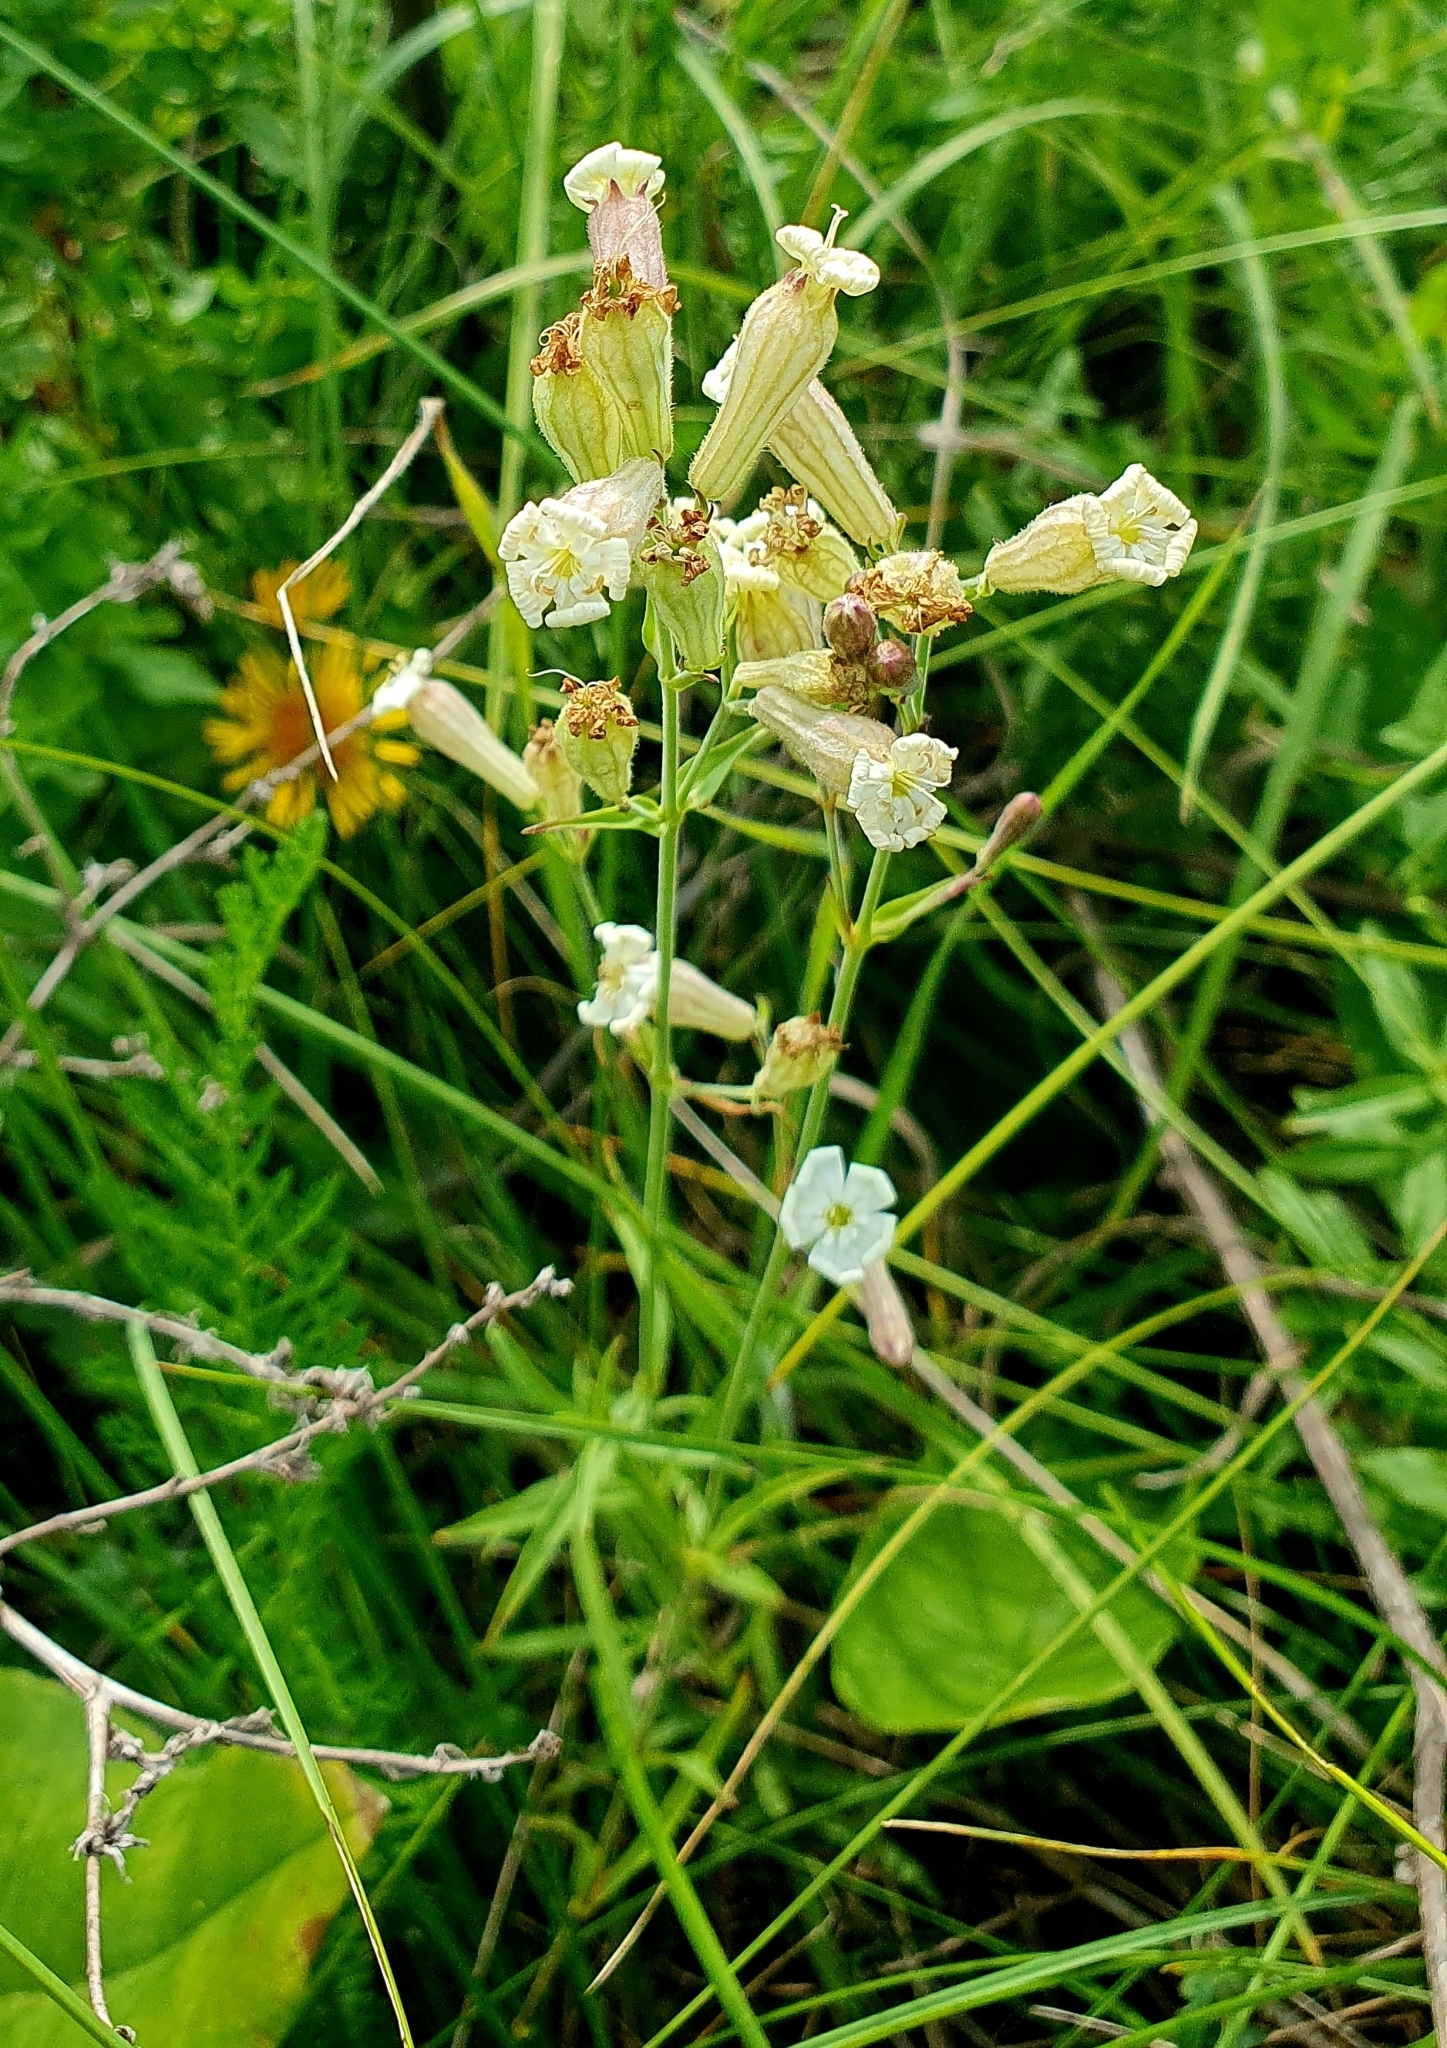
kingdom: Plantae
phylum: Tracheophyta
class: Magnoliopsida
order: Caryophyllales
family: Caryophyllaceae
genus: Silene
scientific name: Silene amoena
